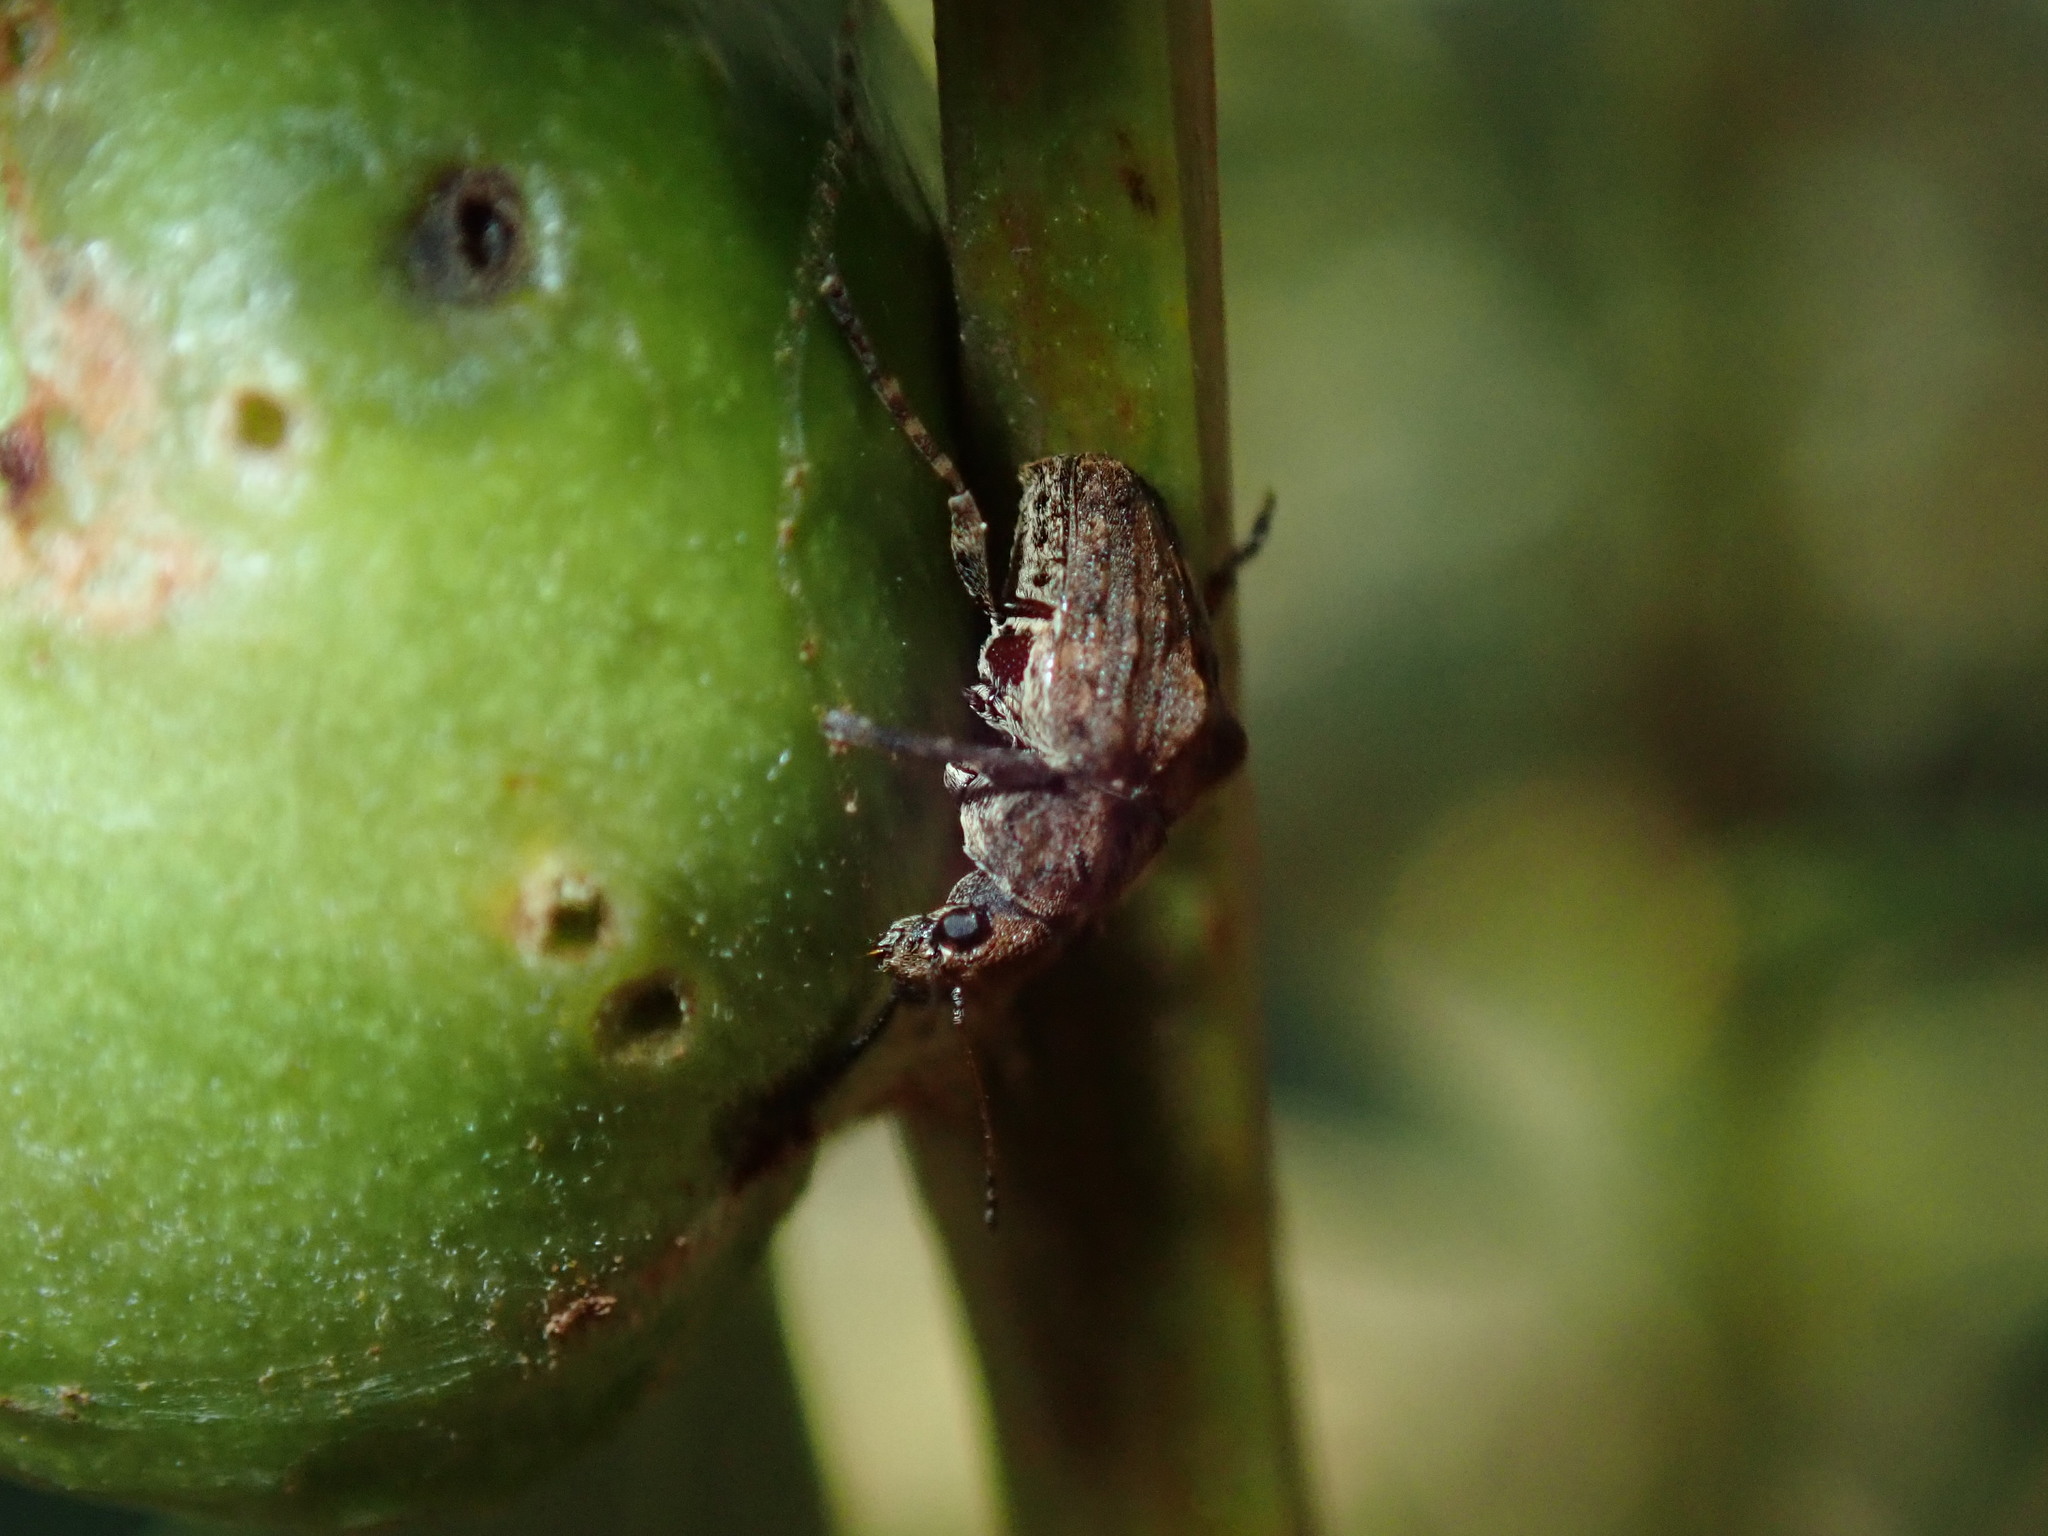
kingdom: Animalia
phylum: Arthropoda
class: Insecta
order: Coleoptera
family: Anthribidae
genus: Araecerus
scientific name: Araecerus
